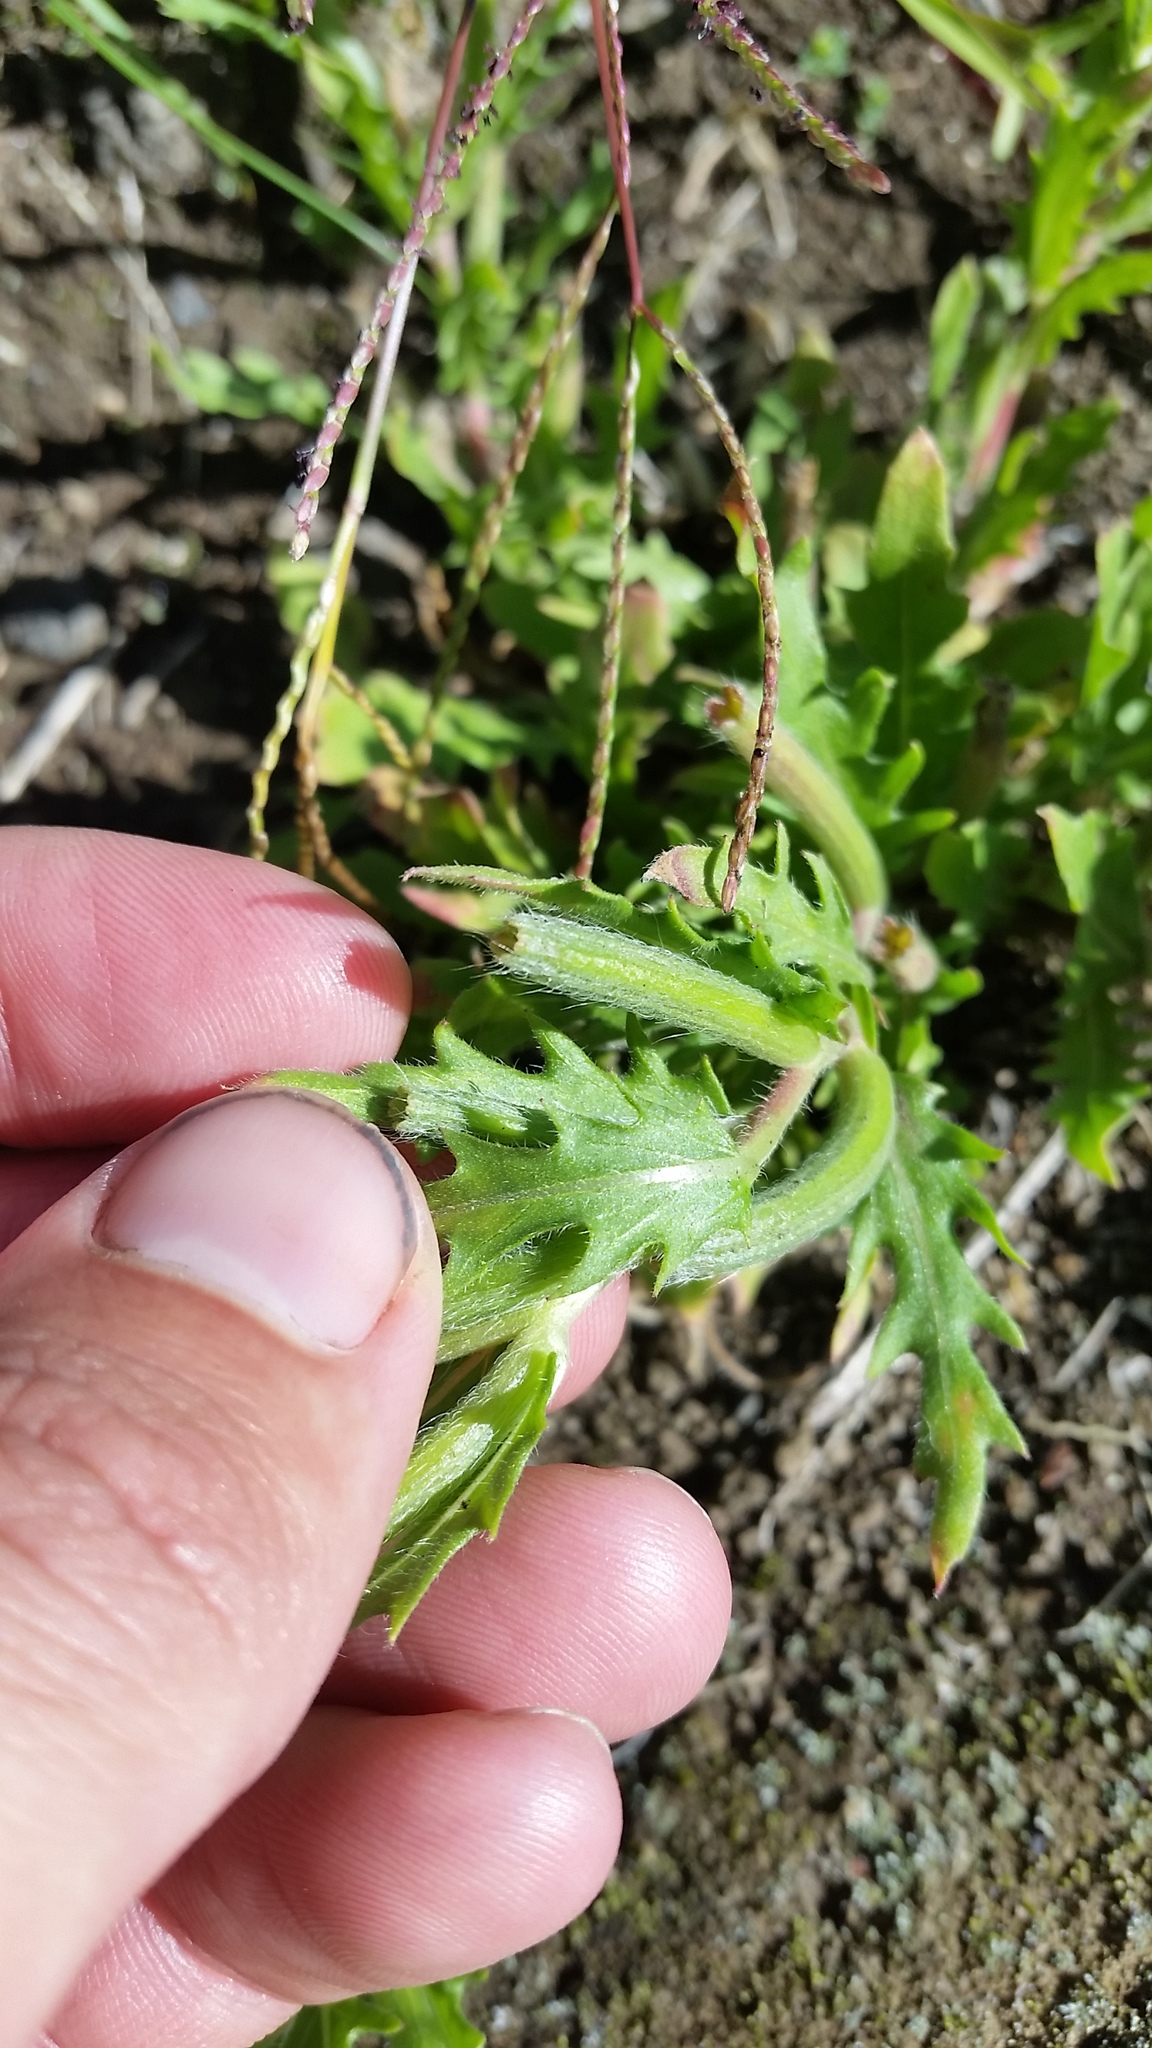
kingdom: Plantae
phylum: Tracheophyta
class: Magnoliopsida
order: Myrtales
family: Onagraceae
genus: Oenothera
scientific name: Oenothera laciniata
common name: Cut-leaved evening-primrose
